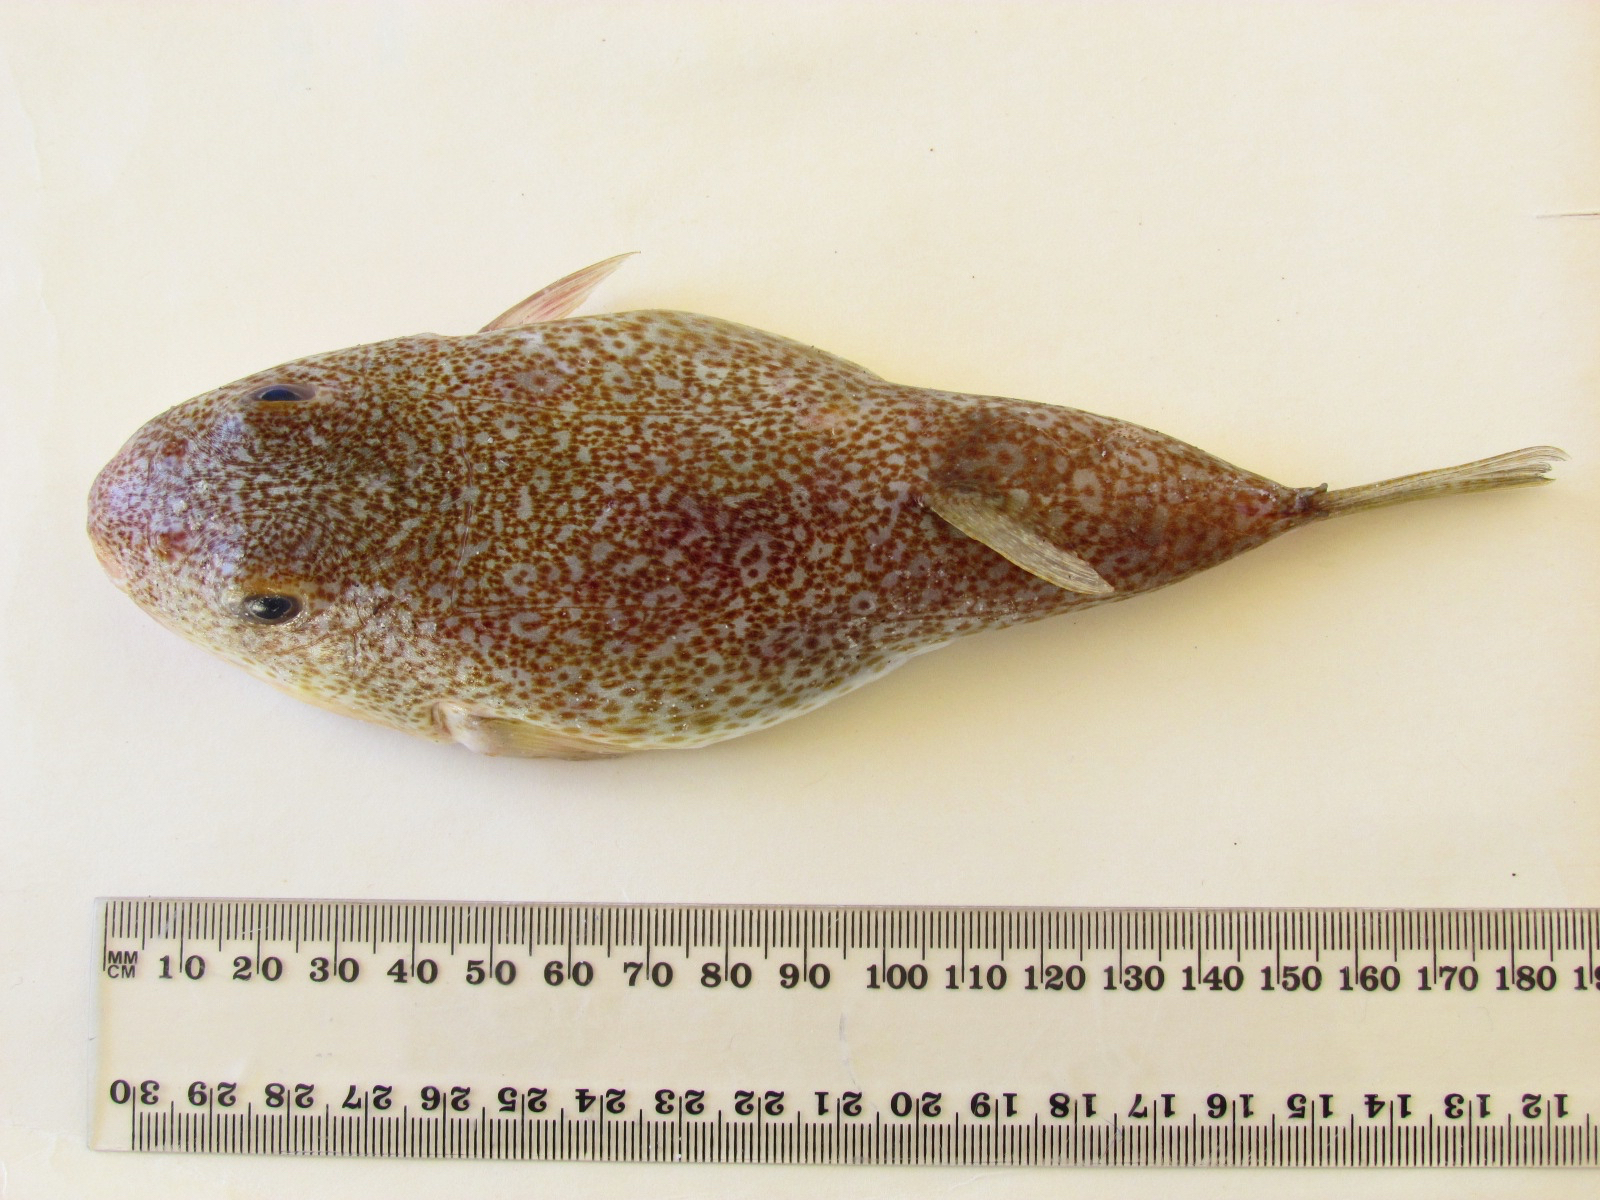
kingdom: Animalia
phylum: Chordata
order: Tetraodontiformes
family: Tetraodontidae
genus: Torquigener
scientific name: Torquigener vicinus
